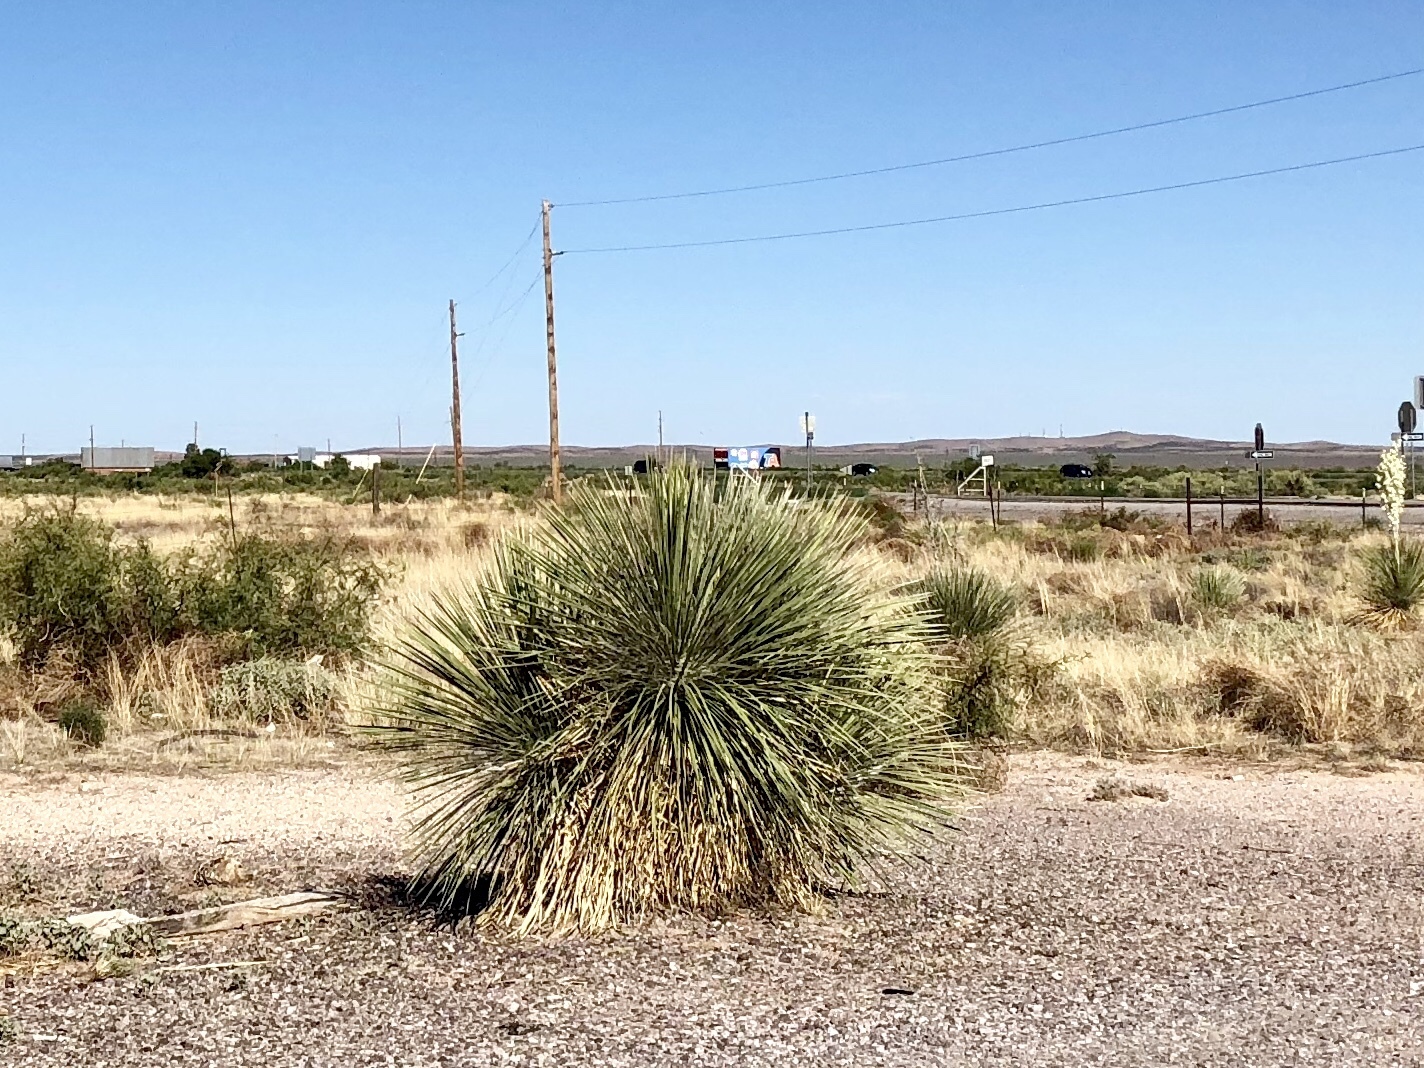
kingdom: Plantae
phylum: Tracheophyta
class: Liliopsida
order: Asparagales
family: Asparagaceae
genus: Yucca
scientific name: Yucca elata
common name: Palmella
